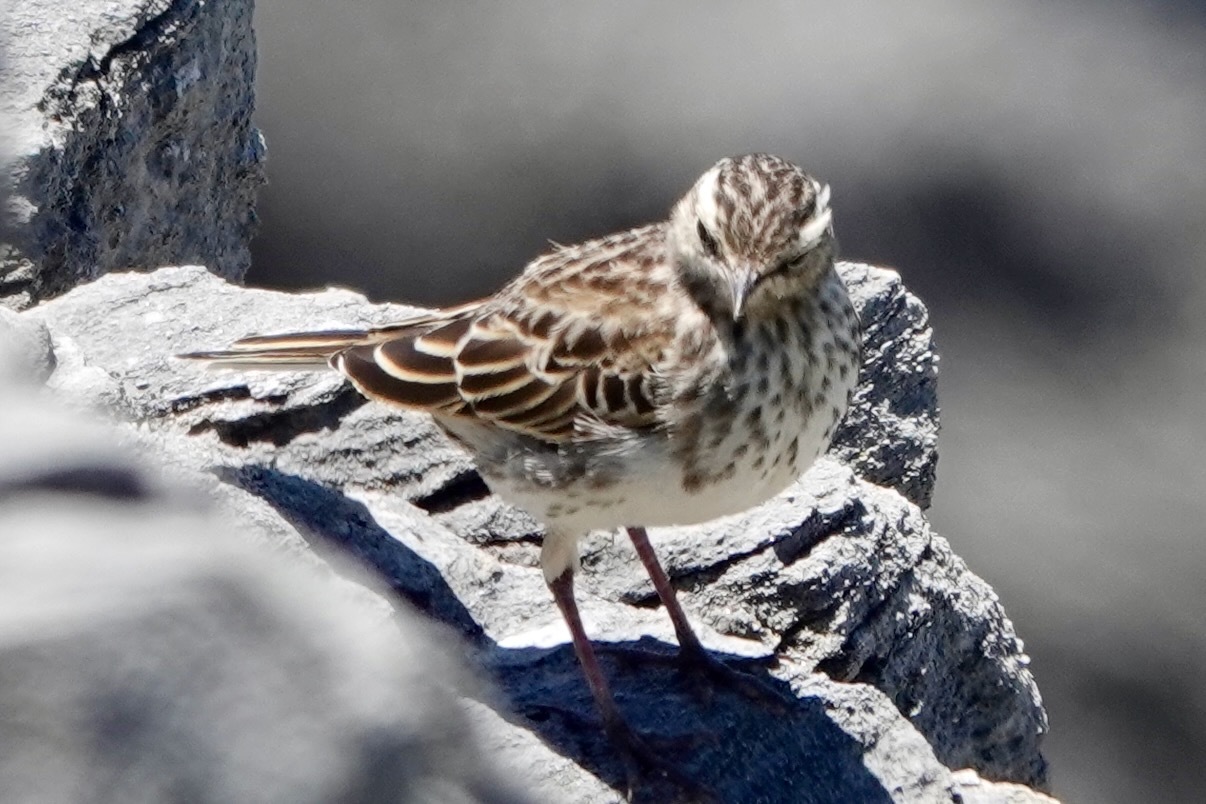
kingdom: Animalia
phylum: Chordata
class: Aves
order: Passeriformes
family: Motacillidae
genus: Anthus
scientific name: Anthus novaeseelandiae
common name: New zealand pipit
